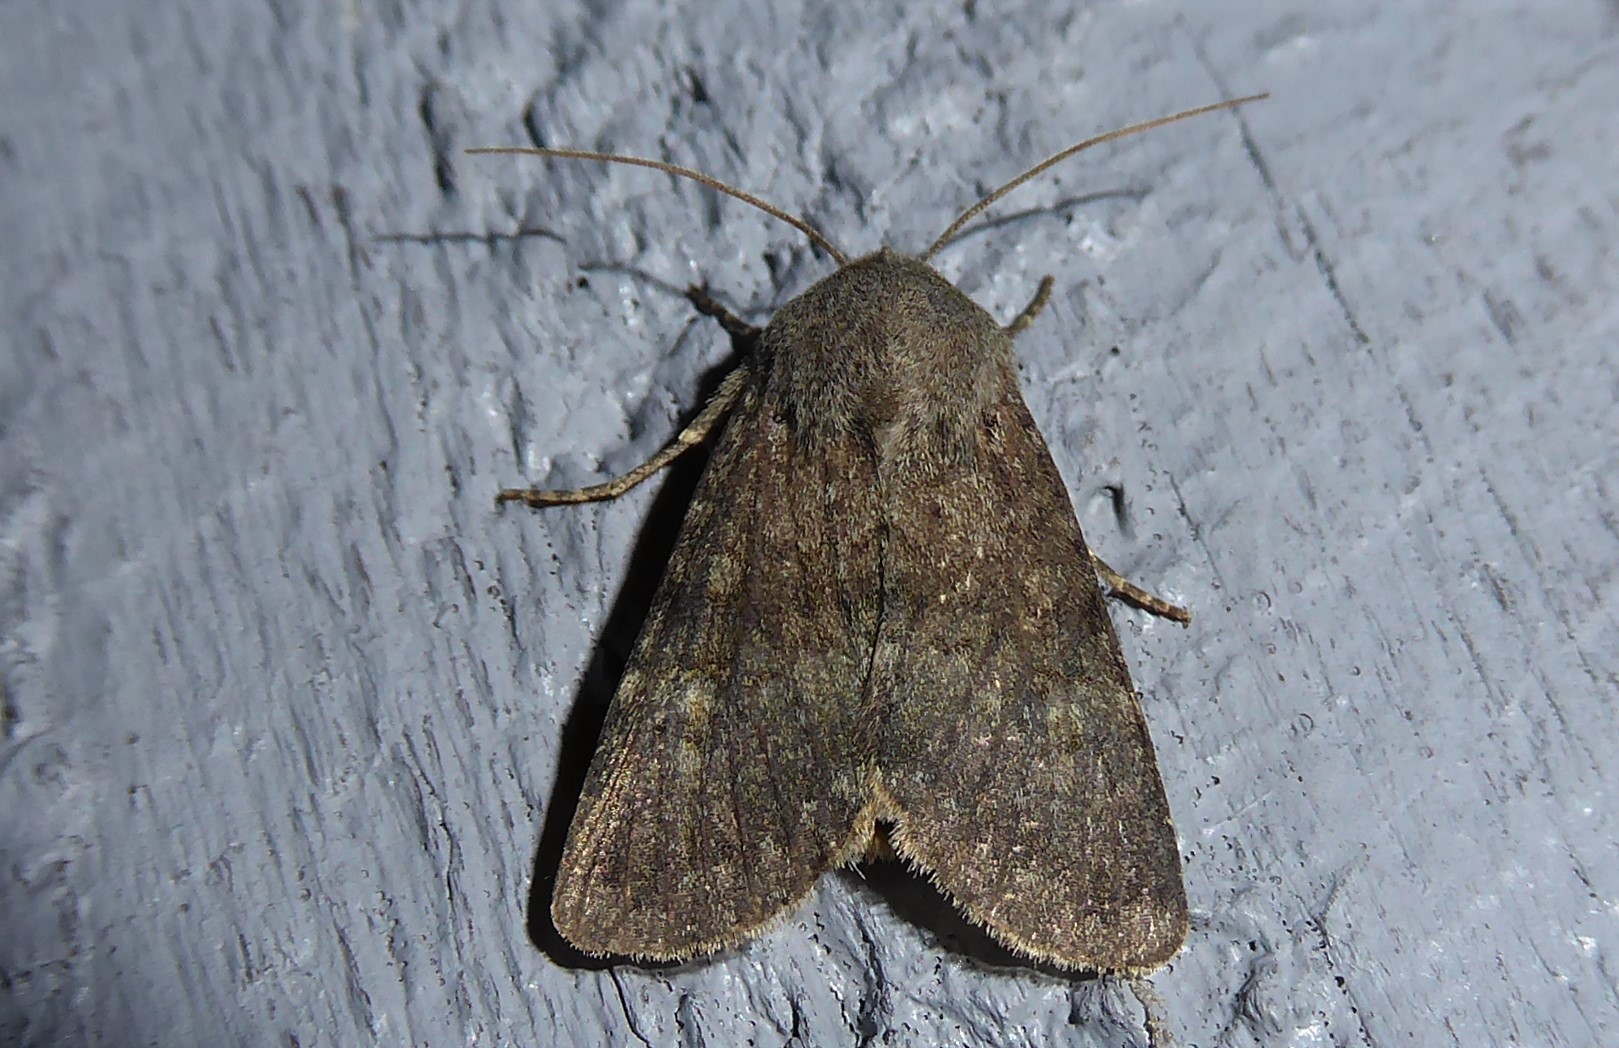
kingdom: Animalia
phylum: Arthropoda
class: Insecta
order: Lepidoptera
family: Noctuidae
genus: Ichneutica
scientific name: Ichneutica moderata
